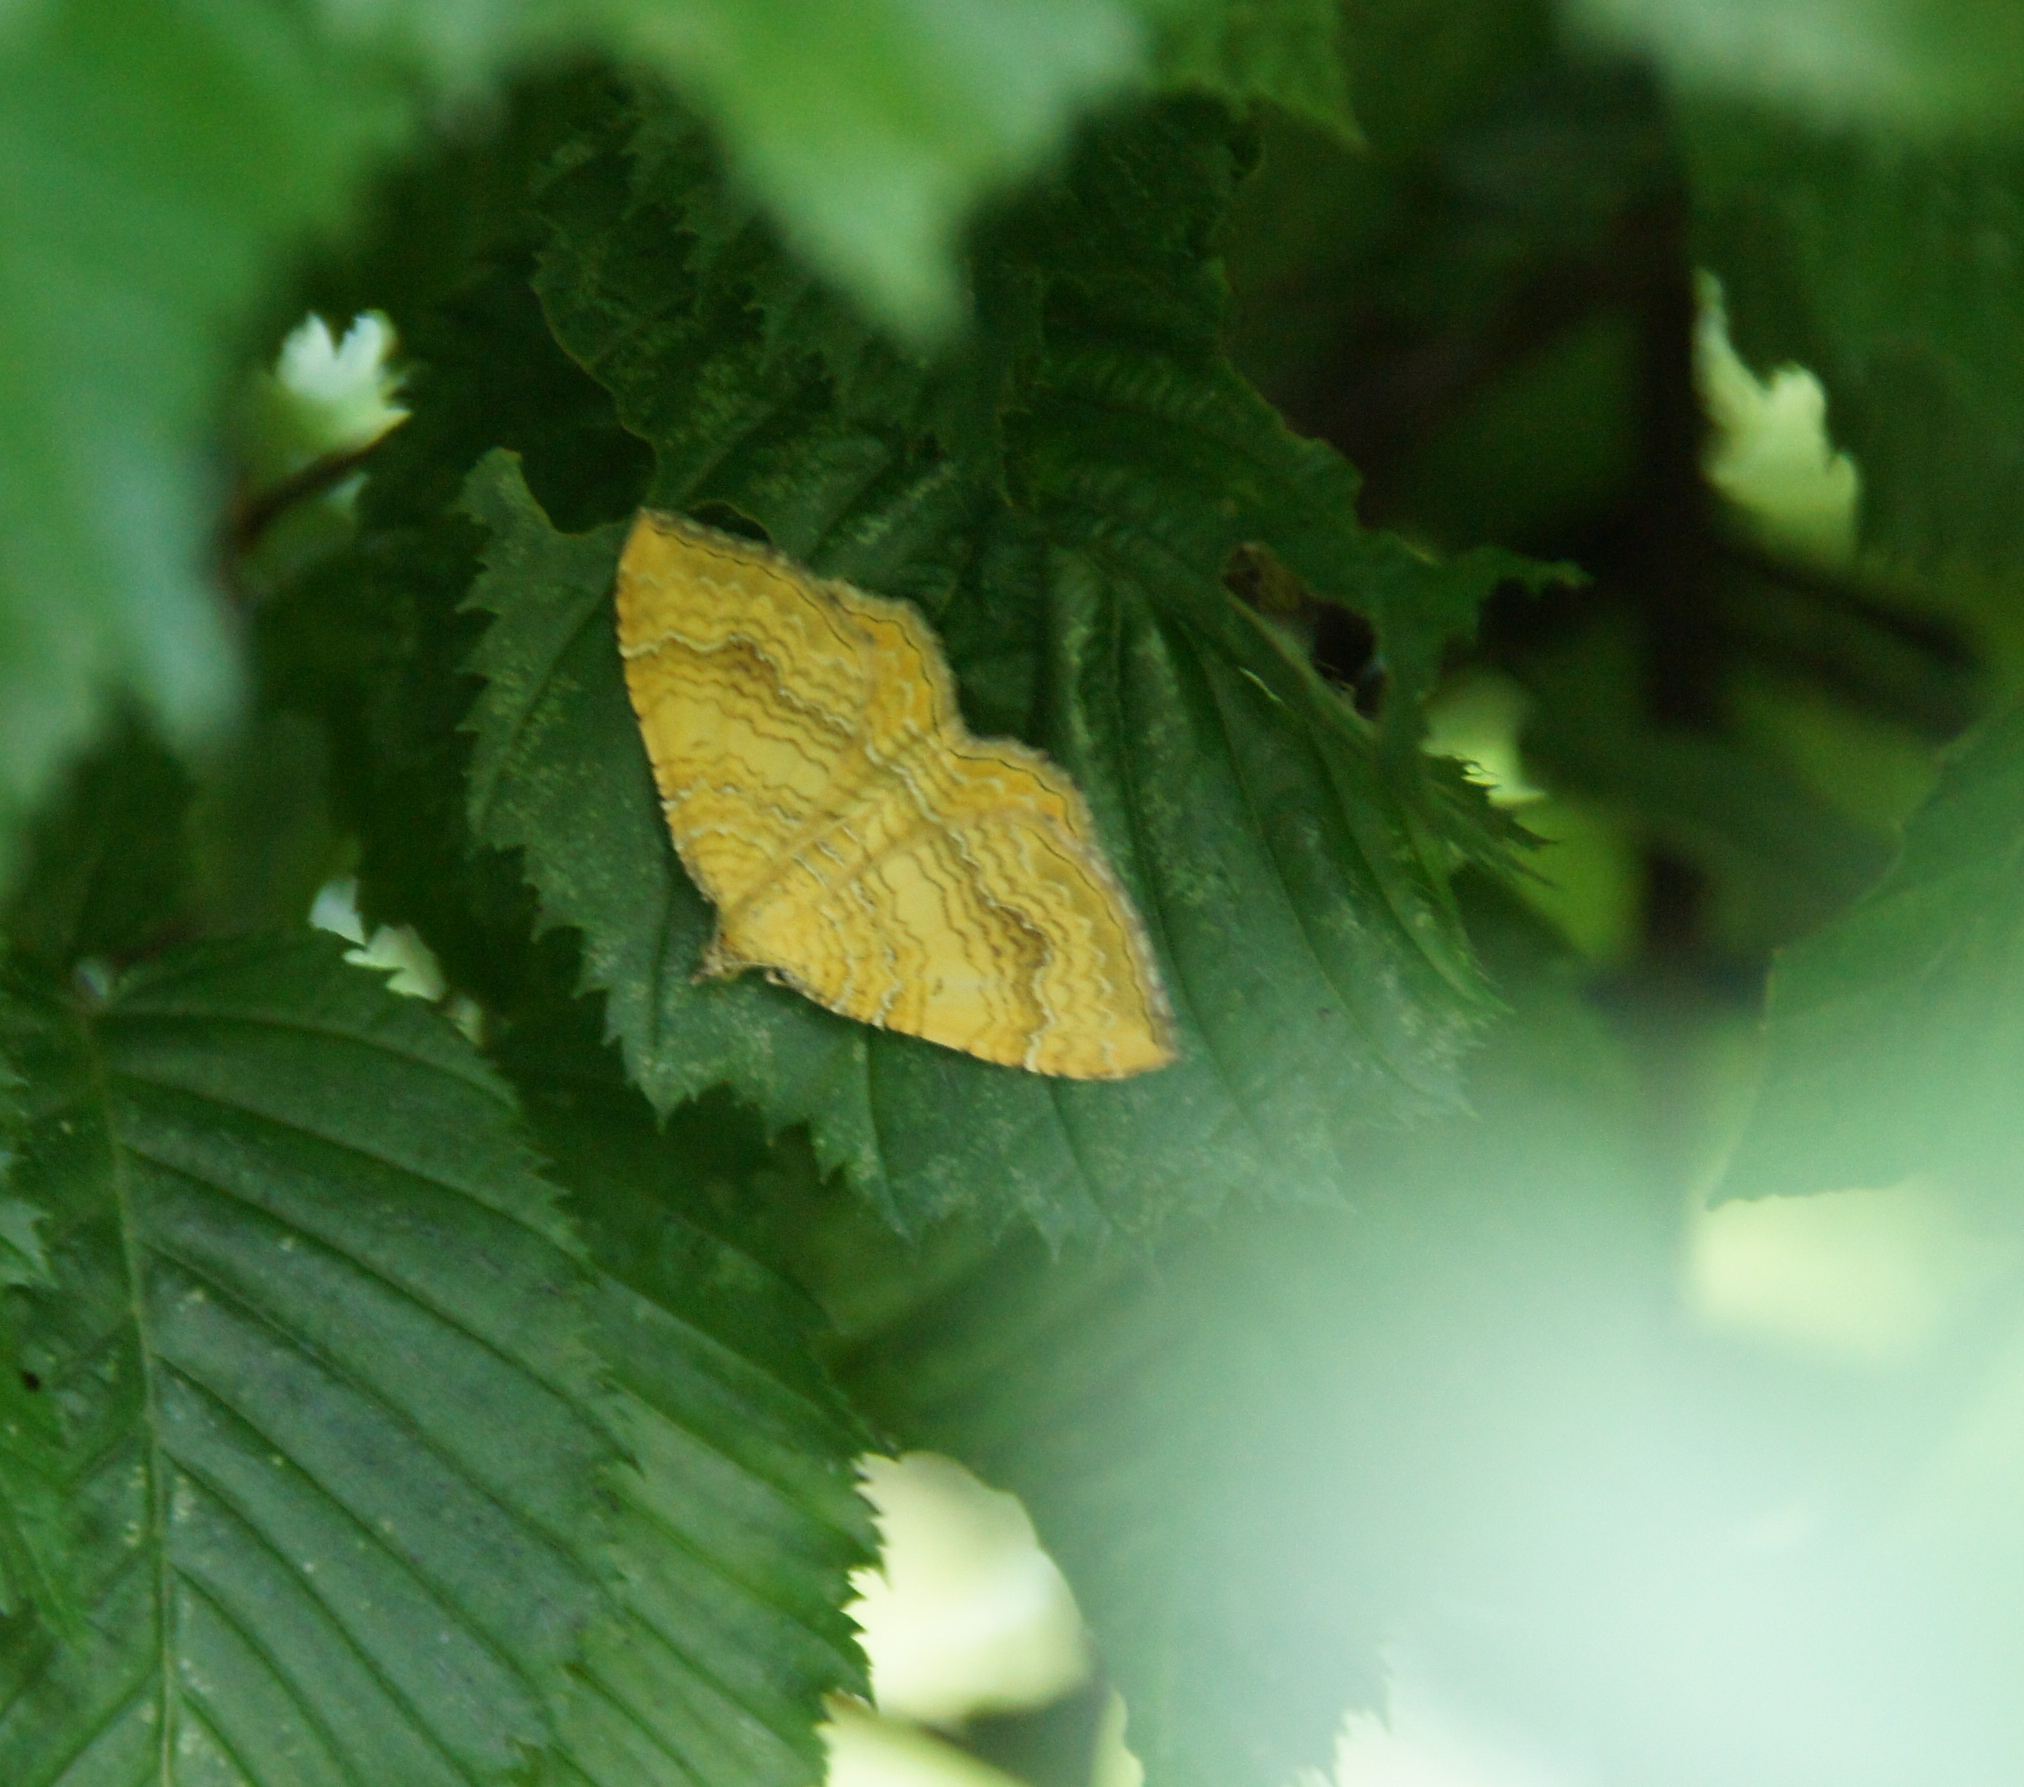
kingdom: Animalia
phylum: Arthropoda
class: Insecta
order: Lepidoptera
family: Geometridae
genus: Camptogramma
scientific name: Camptogramma bilineata
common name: Yellow shell
